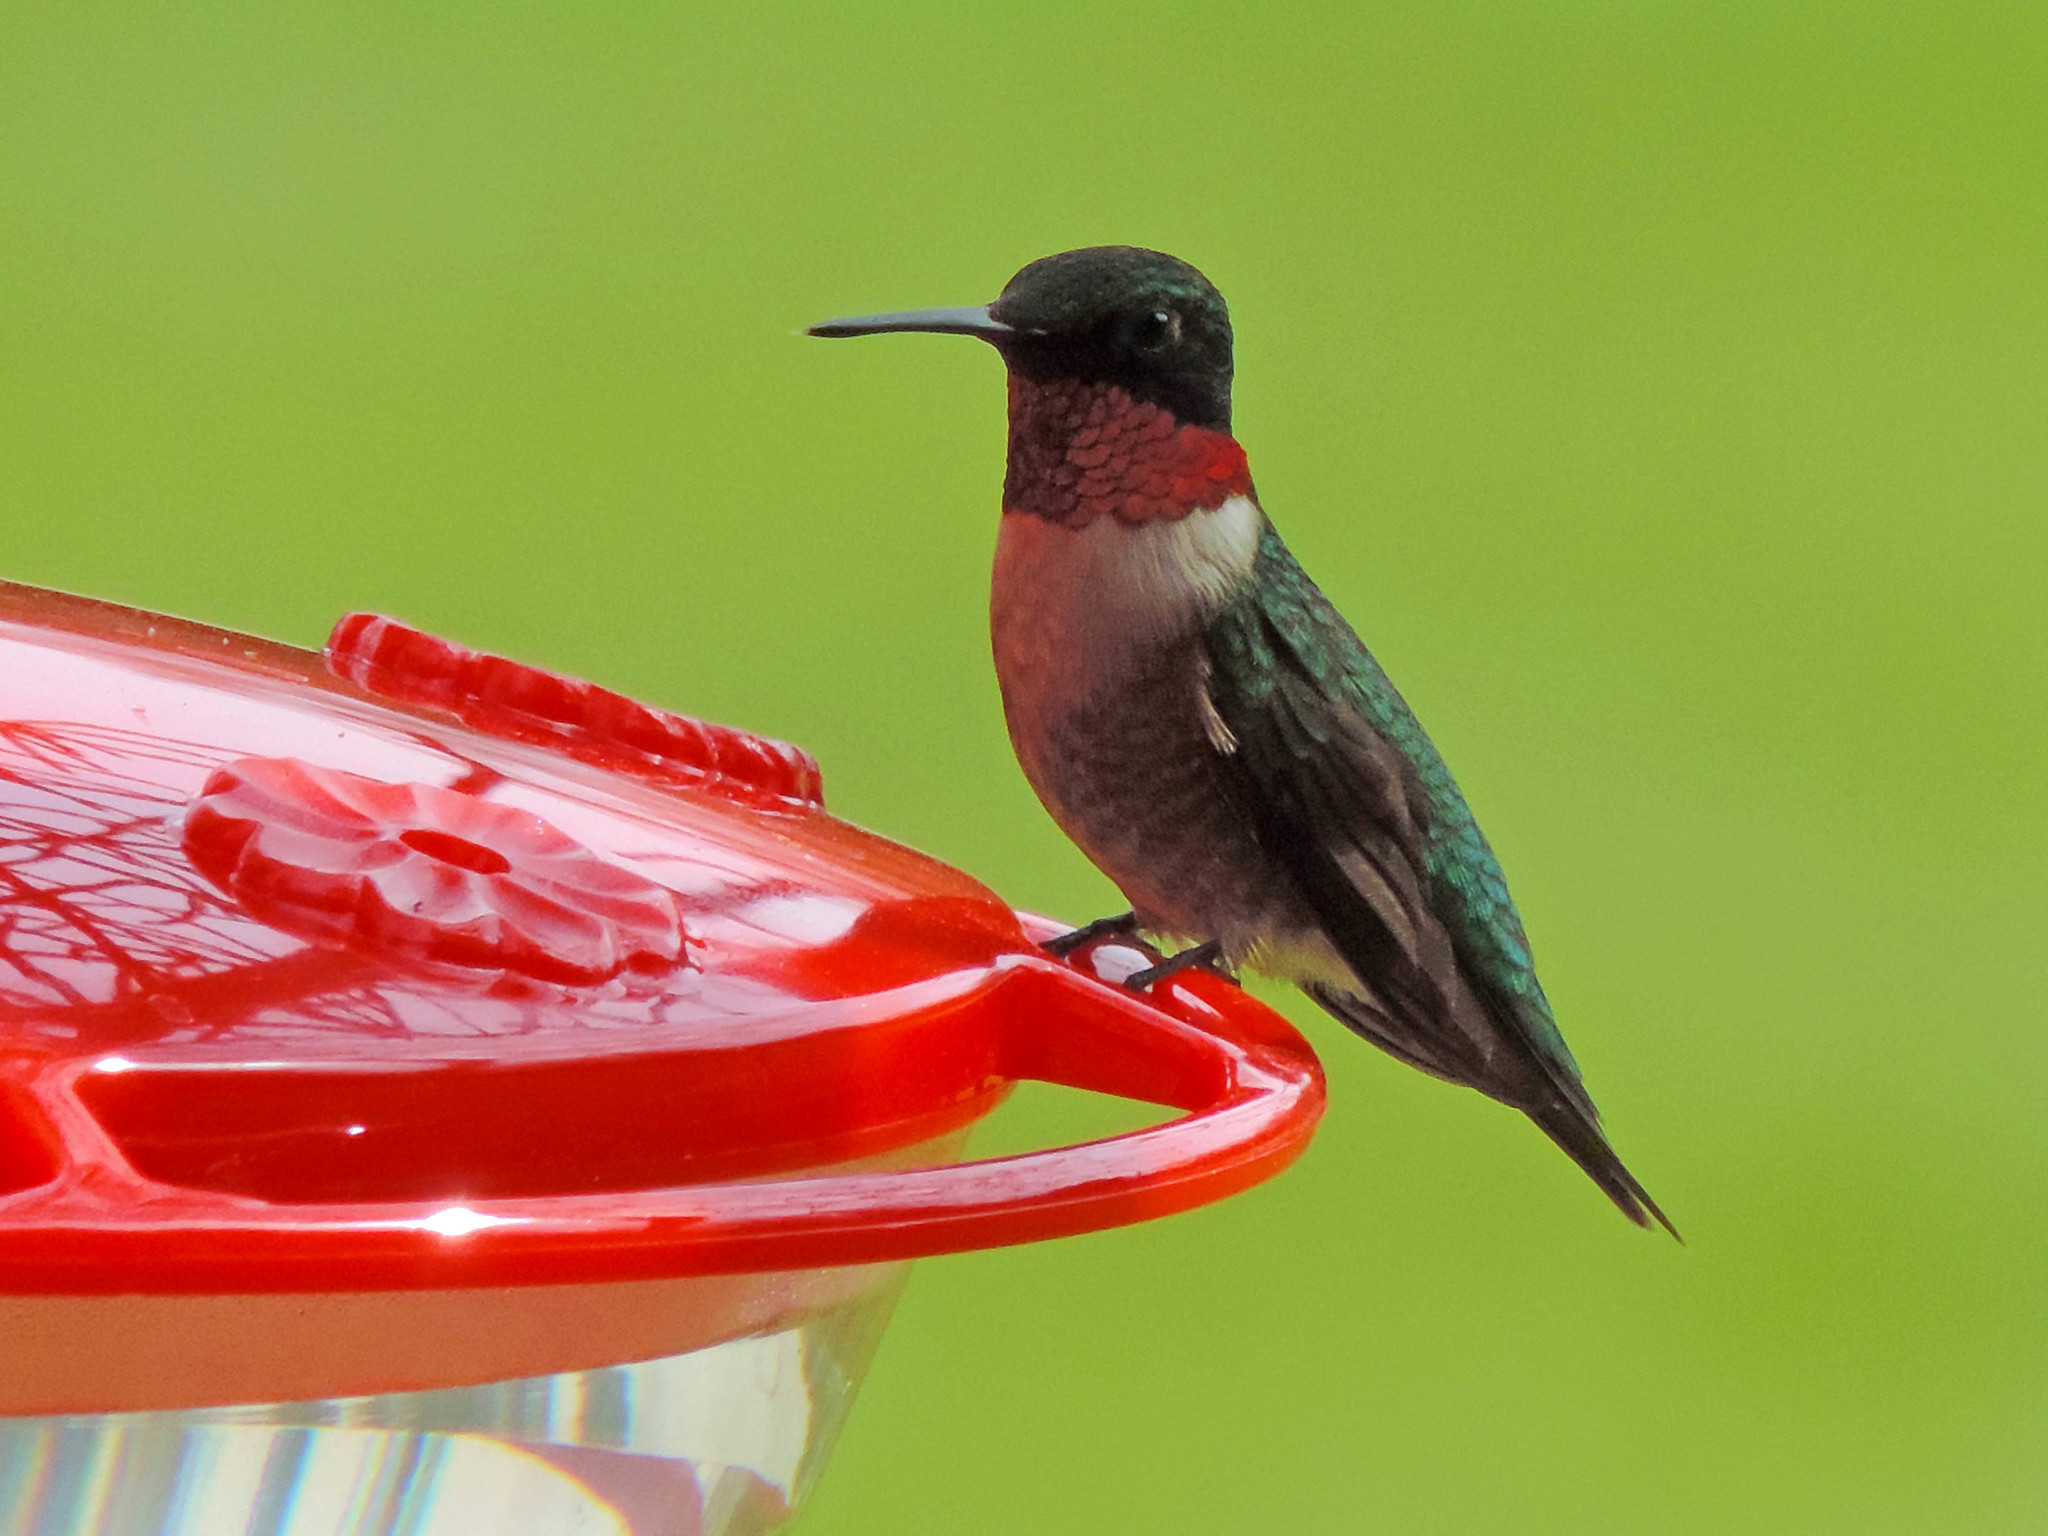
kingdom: Animalia
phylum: Chordata
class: Aves
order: Apodiformes
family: Trochilidae
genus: Archilochus
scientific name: Archilochus colubris
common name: Ruby-throated hummingbird
